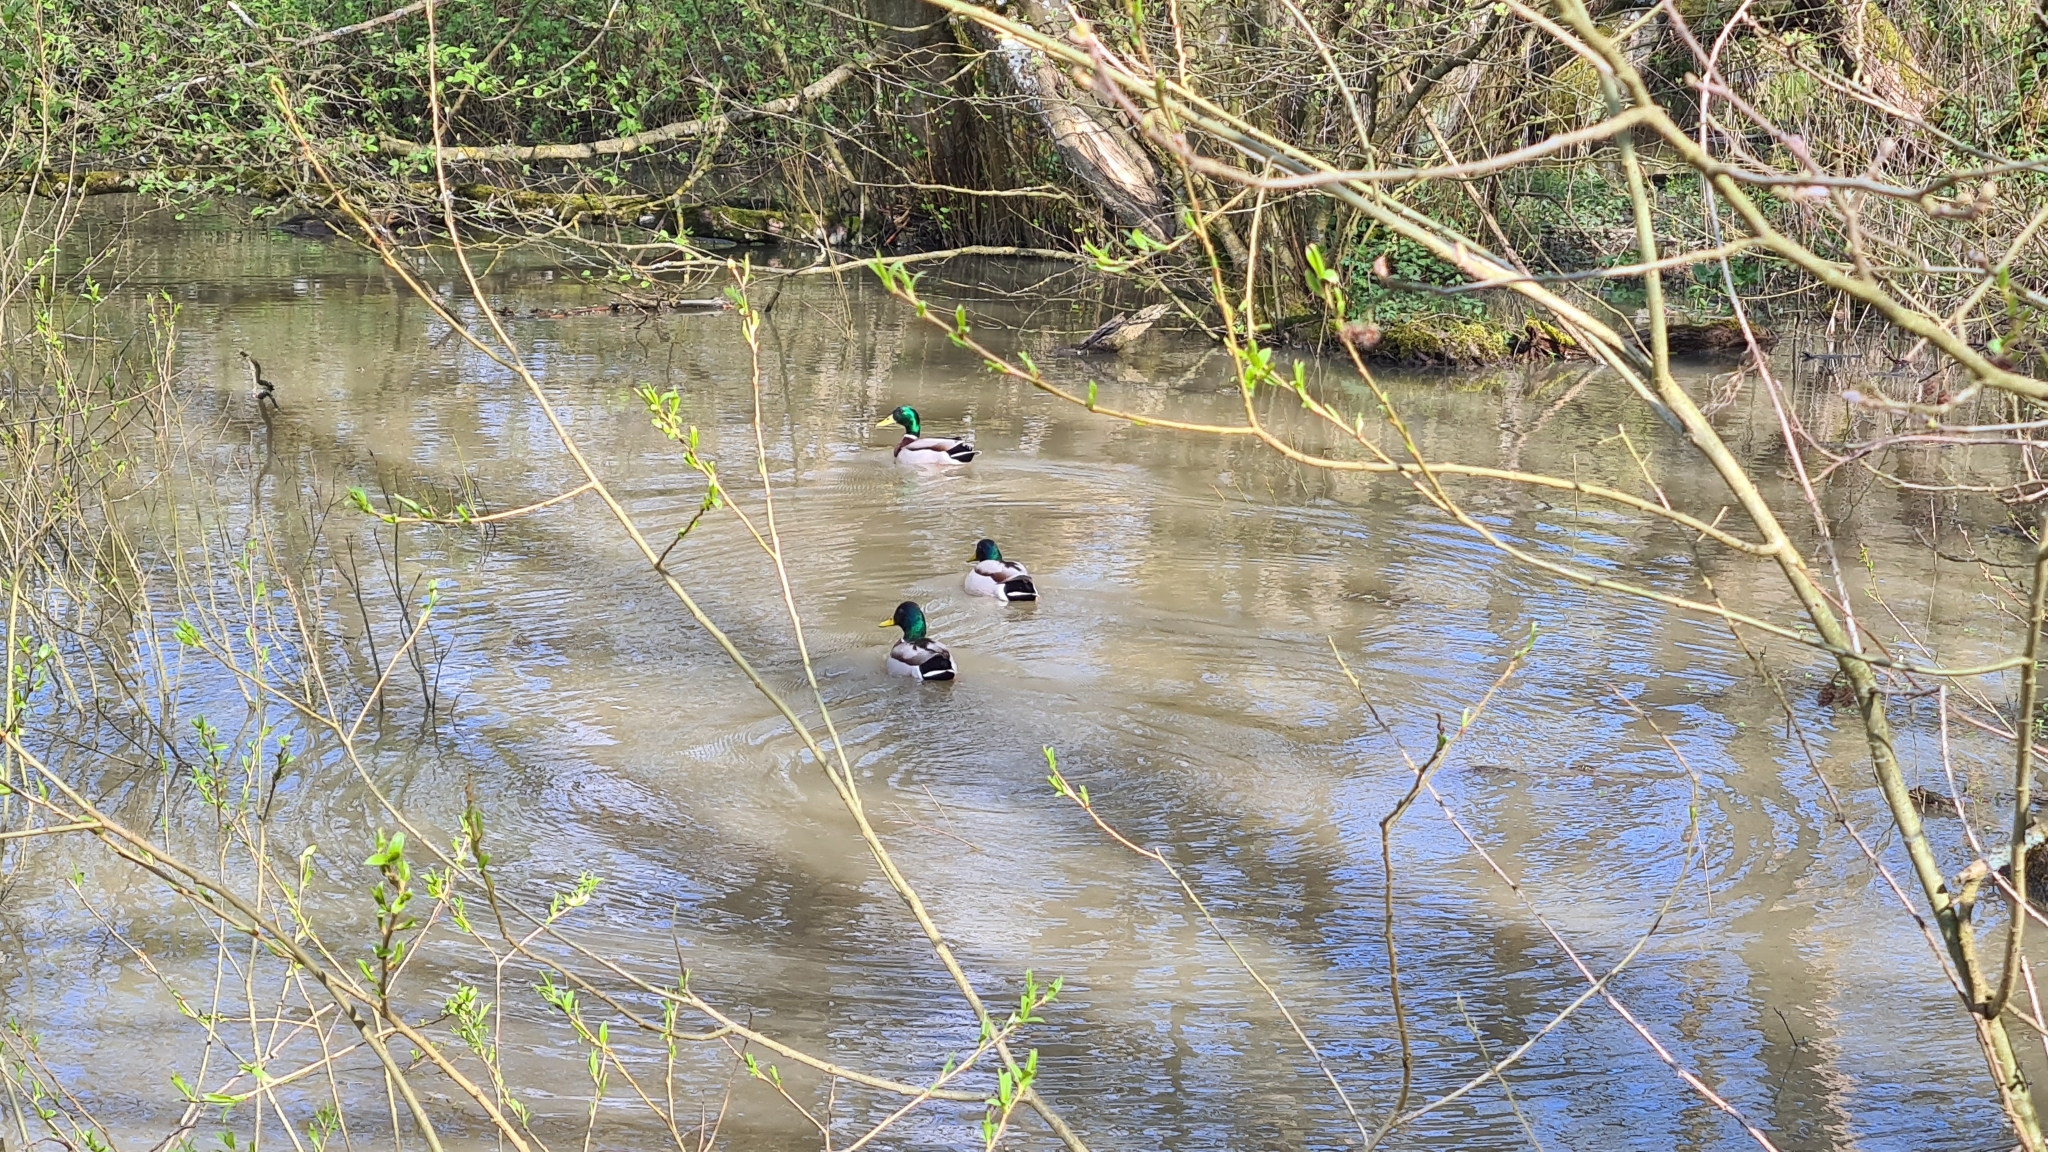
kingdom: Animalia
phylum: Chordata
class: Aves
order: Anseriformes
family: Anatidae
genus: Anas
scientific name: Anas platyrhynchos
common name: Mallard
